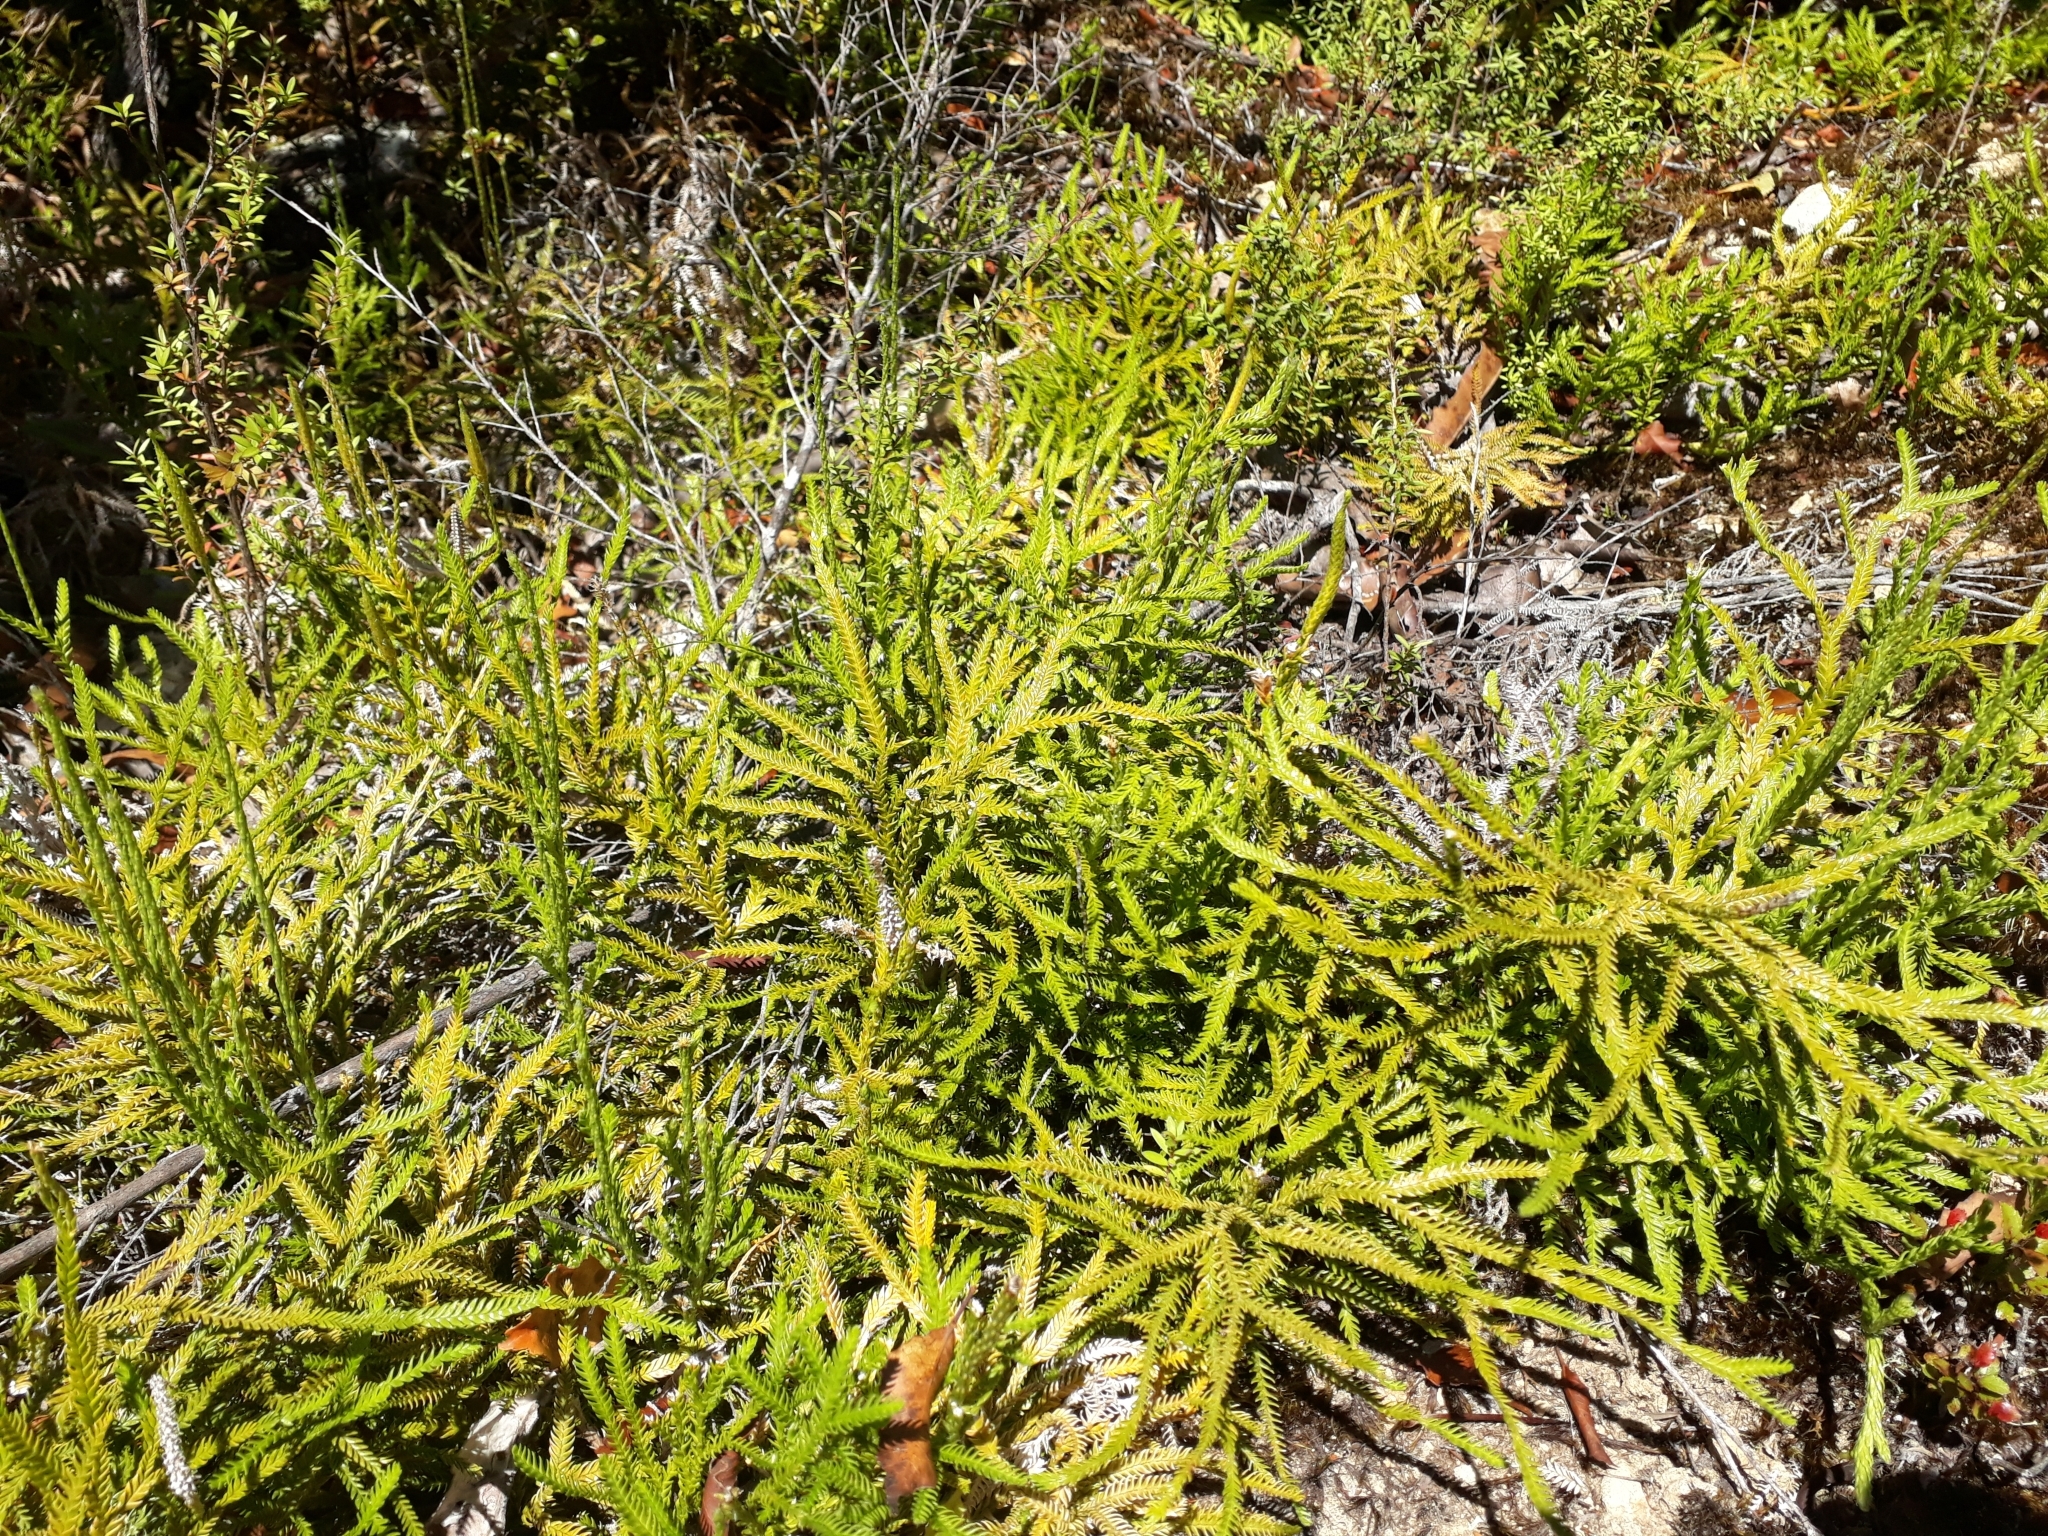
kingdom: Plantae
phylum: Tracheophyta
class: Lycopodiopsida
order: Lycopodiales
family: Lycopodiaceae
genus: Diphasium
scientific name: Diphasium scariosum
